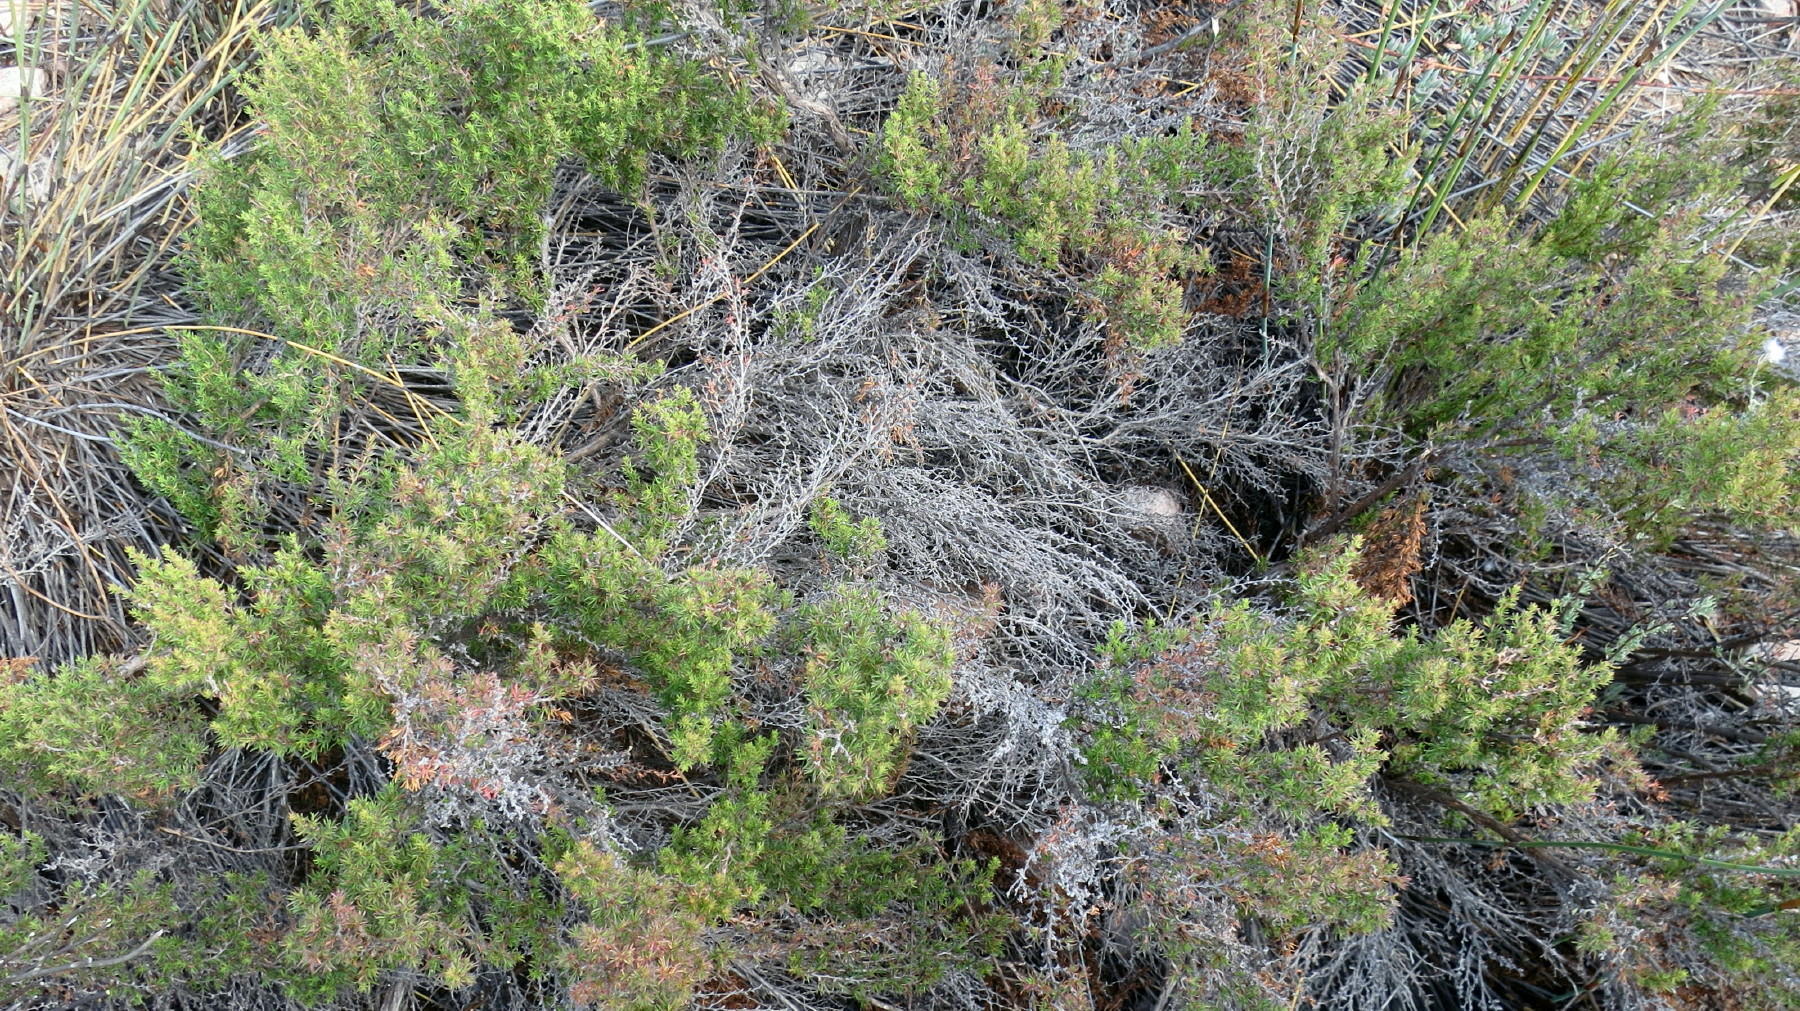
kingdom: Plantae
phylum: Tracheophyta
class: Magnoliopsida
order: Rosales
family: Rosaceae
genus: Cliffortia
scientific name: Cliffortia arcuata
